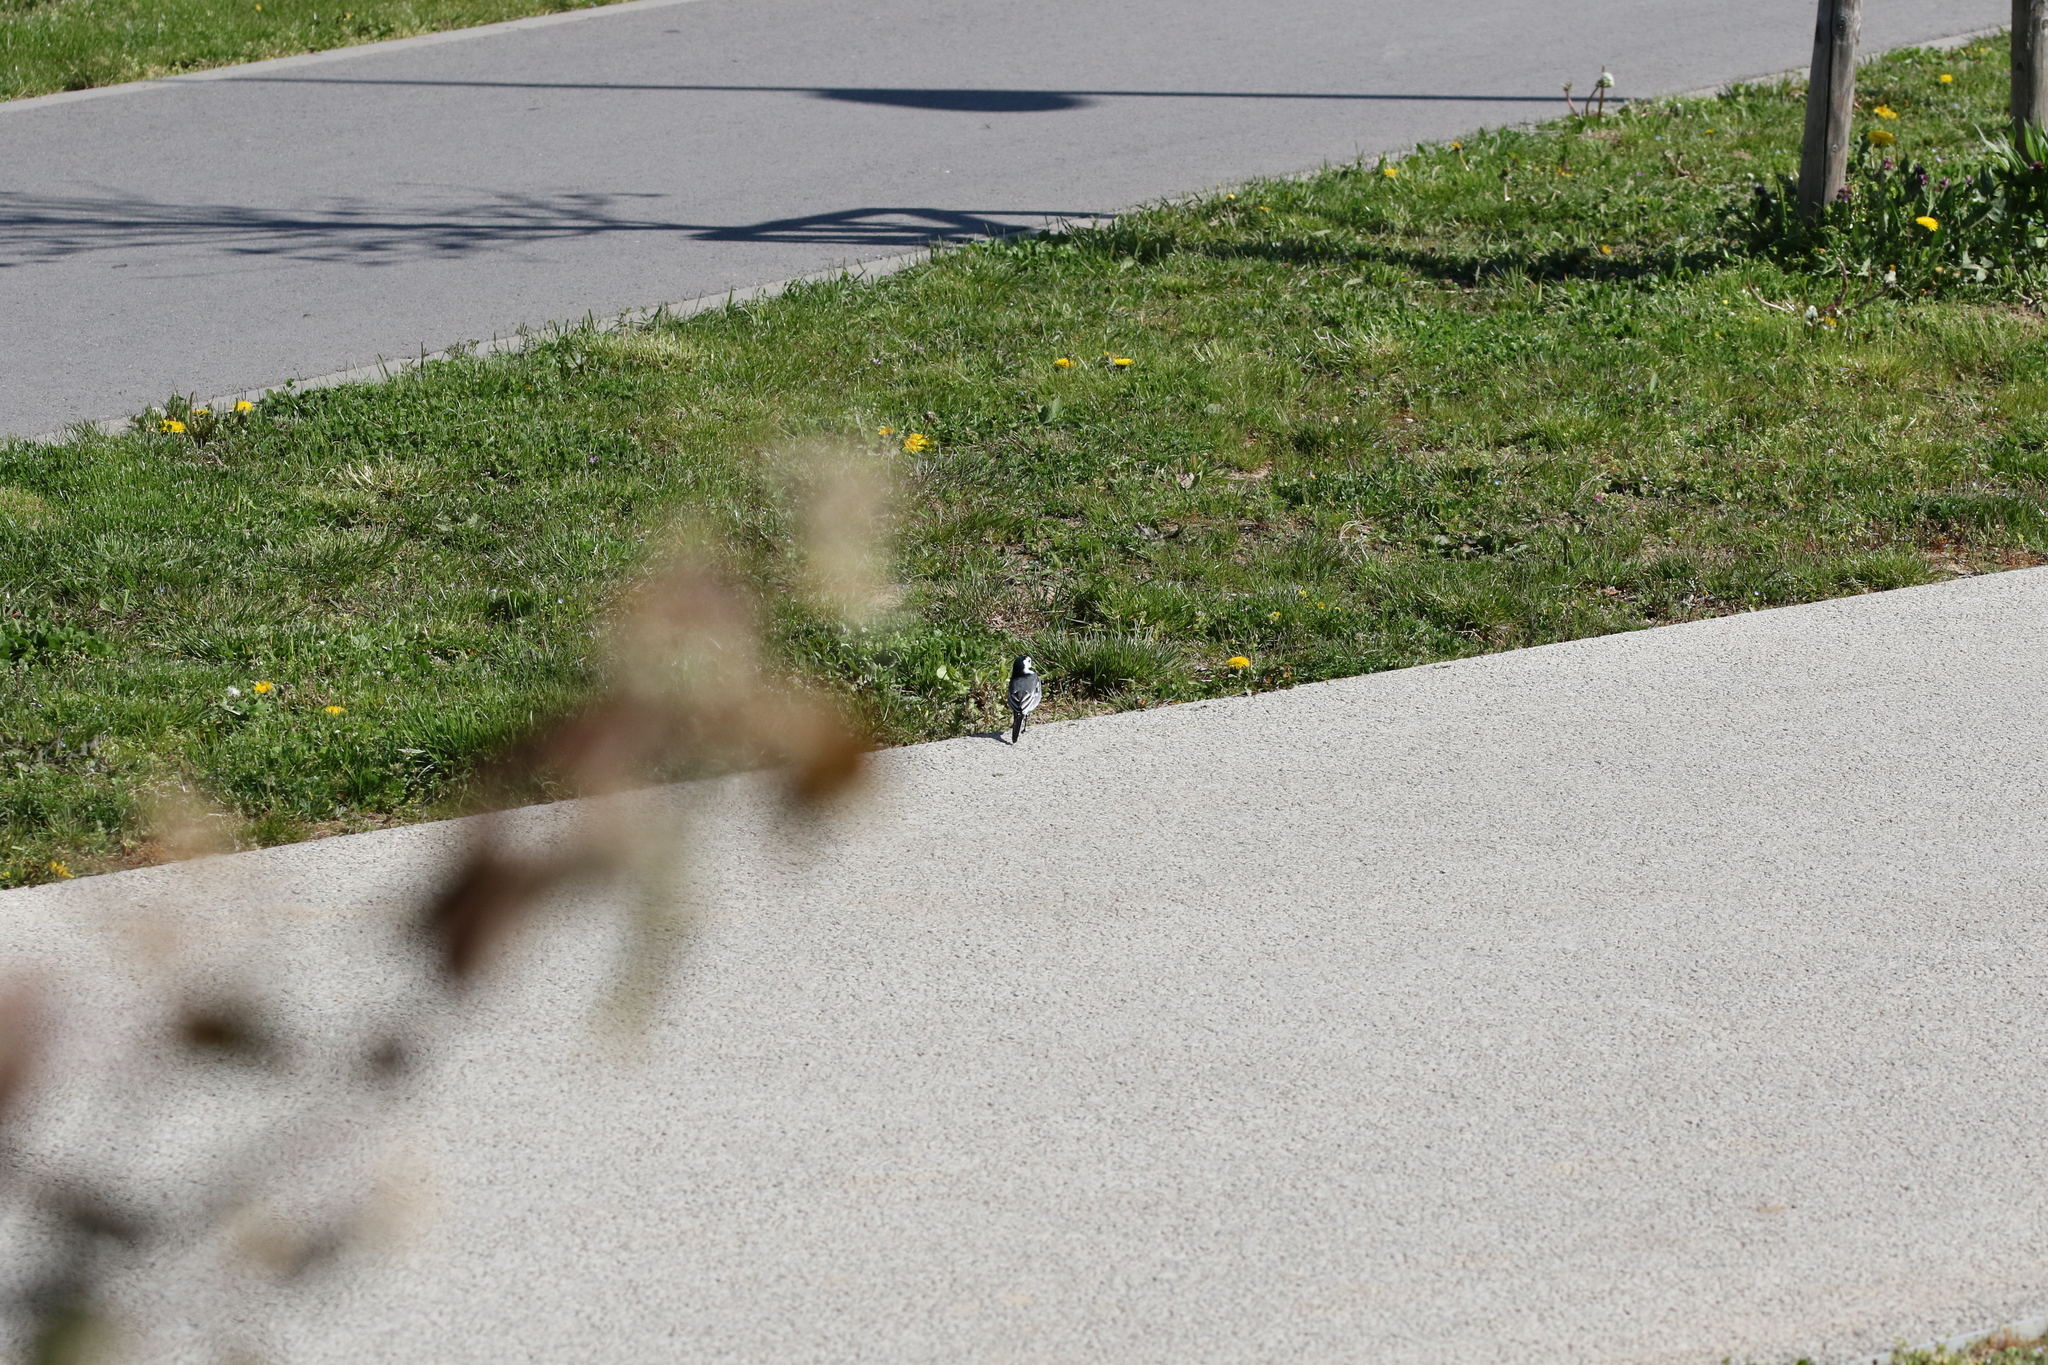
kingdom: Animalia
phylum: Chordata
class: Aves
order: Passeriformes
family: Motacillidae
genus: Motacilla
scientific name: Motacilla alba
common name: White wagtail
